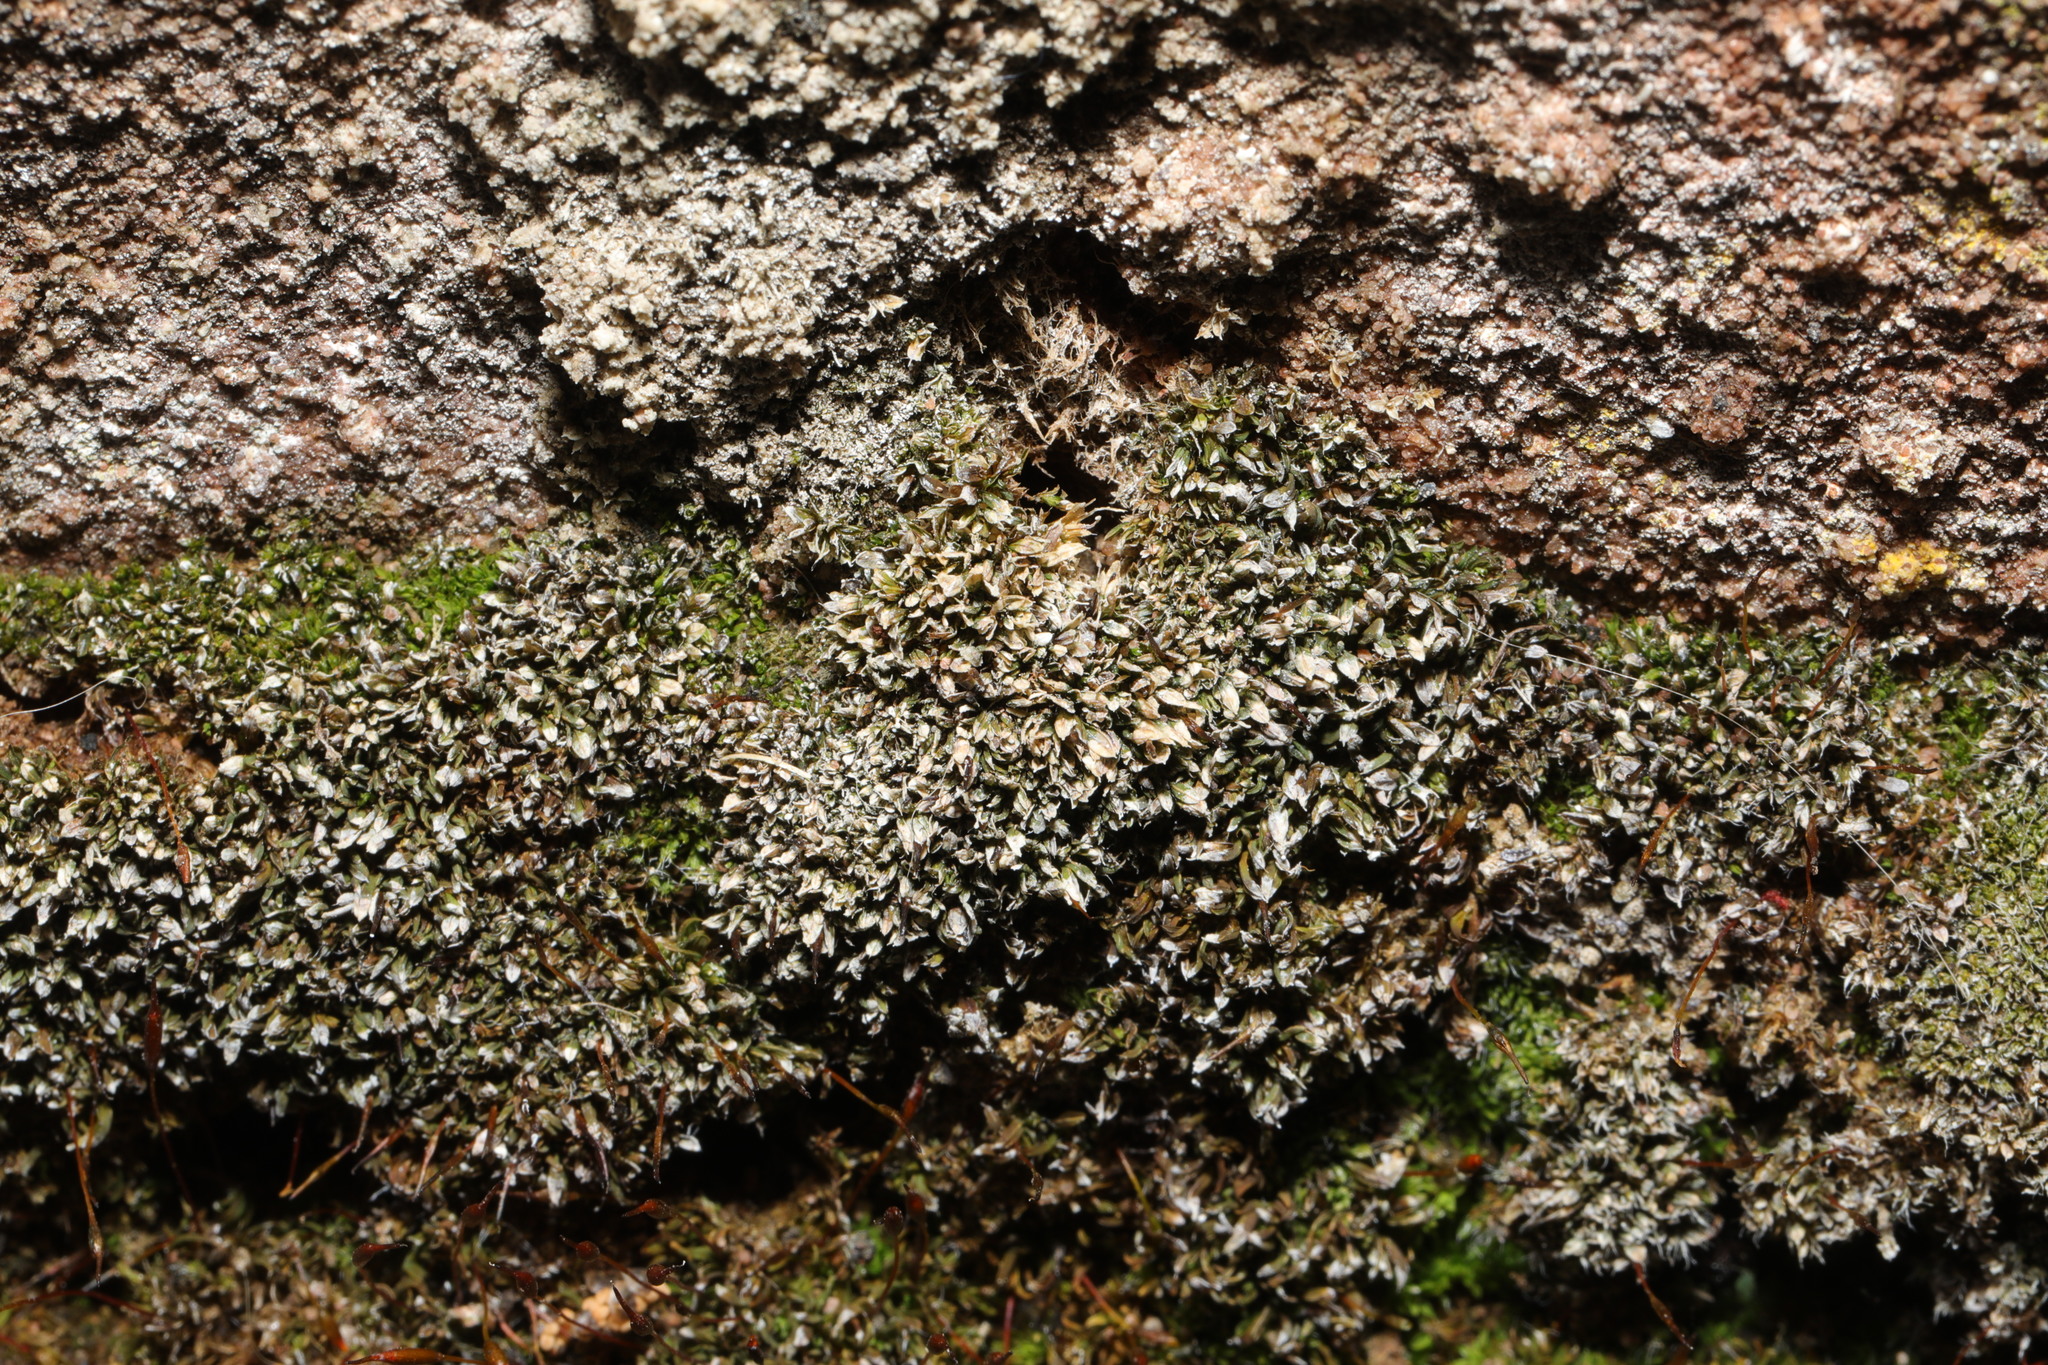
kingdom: Plantae
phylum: Bryophyta
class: Bryopsida
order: Pottiales
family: Pottiaceae
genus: Tortula
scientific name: Tortula muralis
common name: Wall screw-moss
